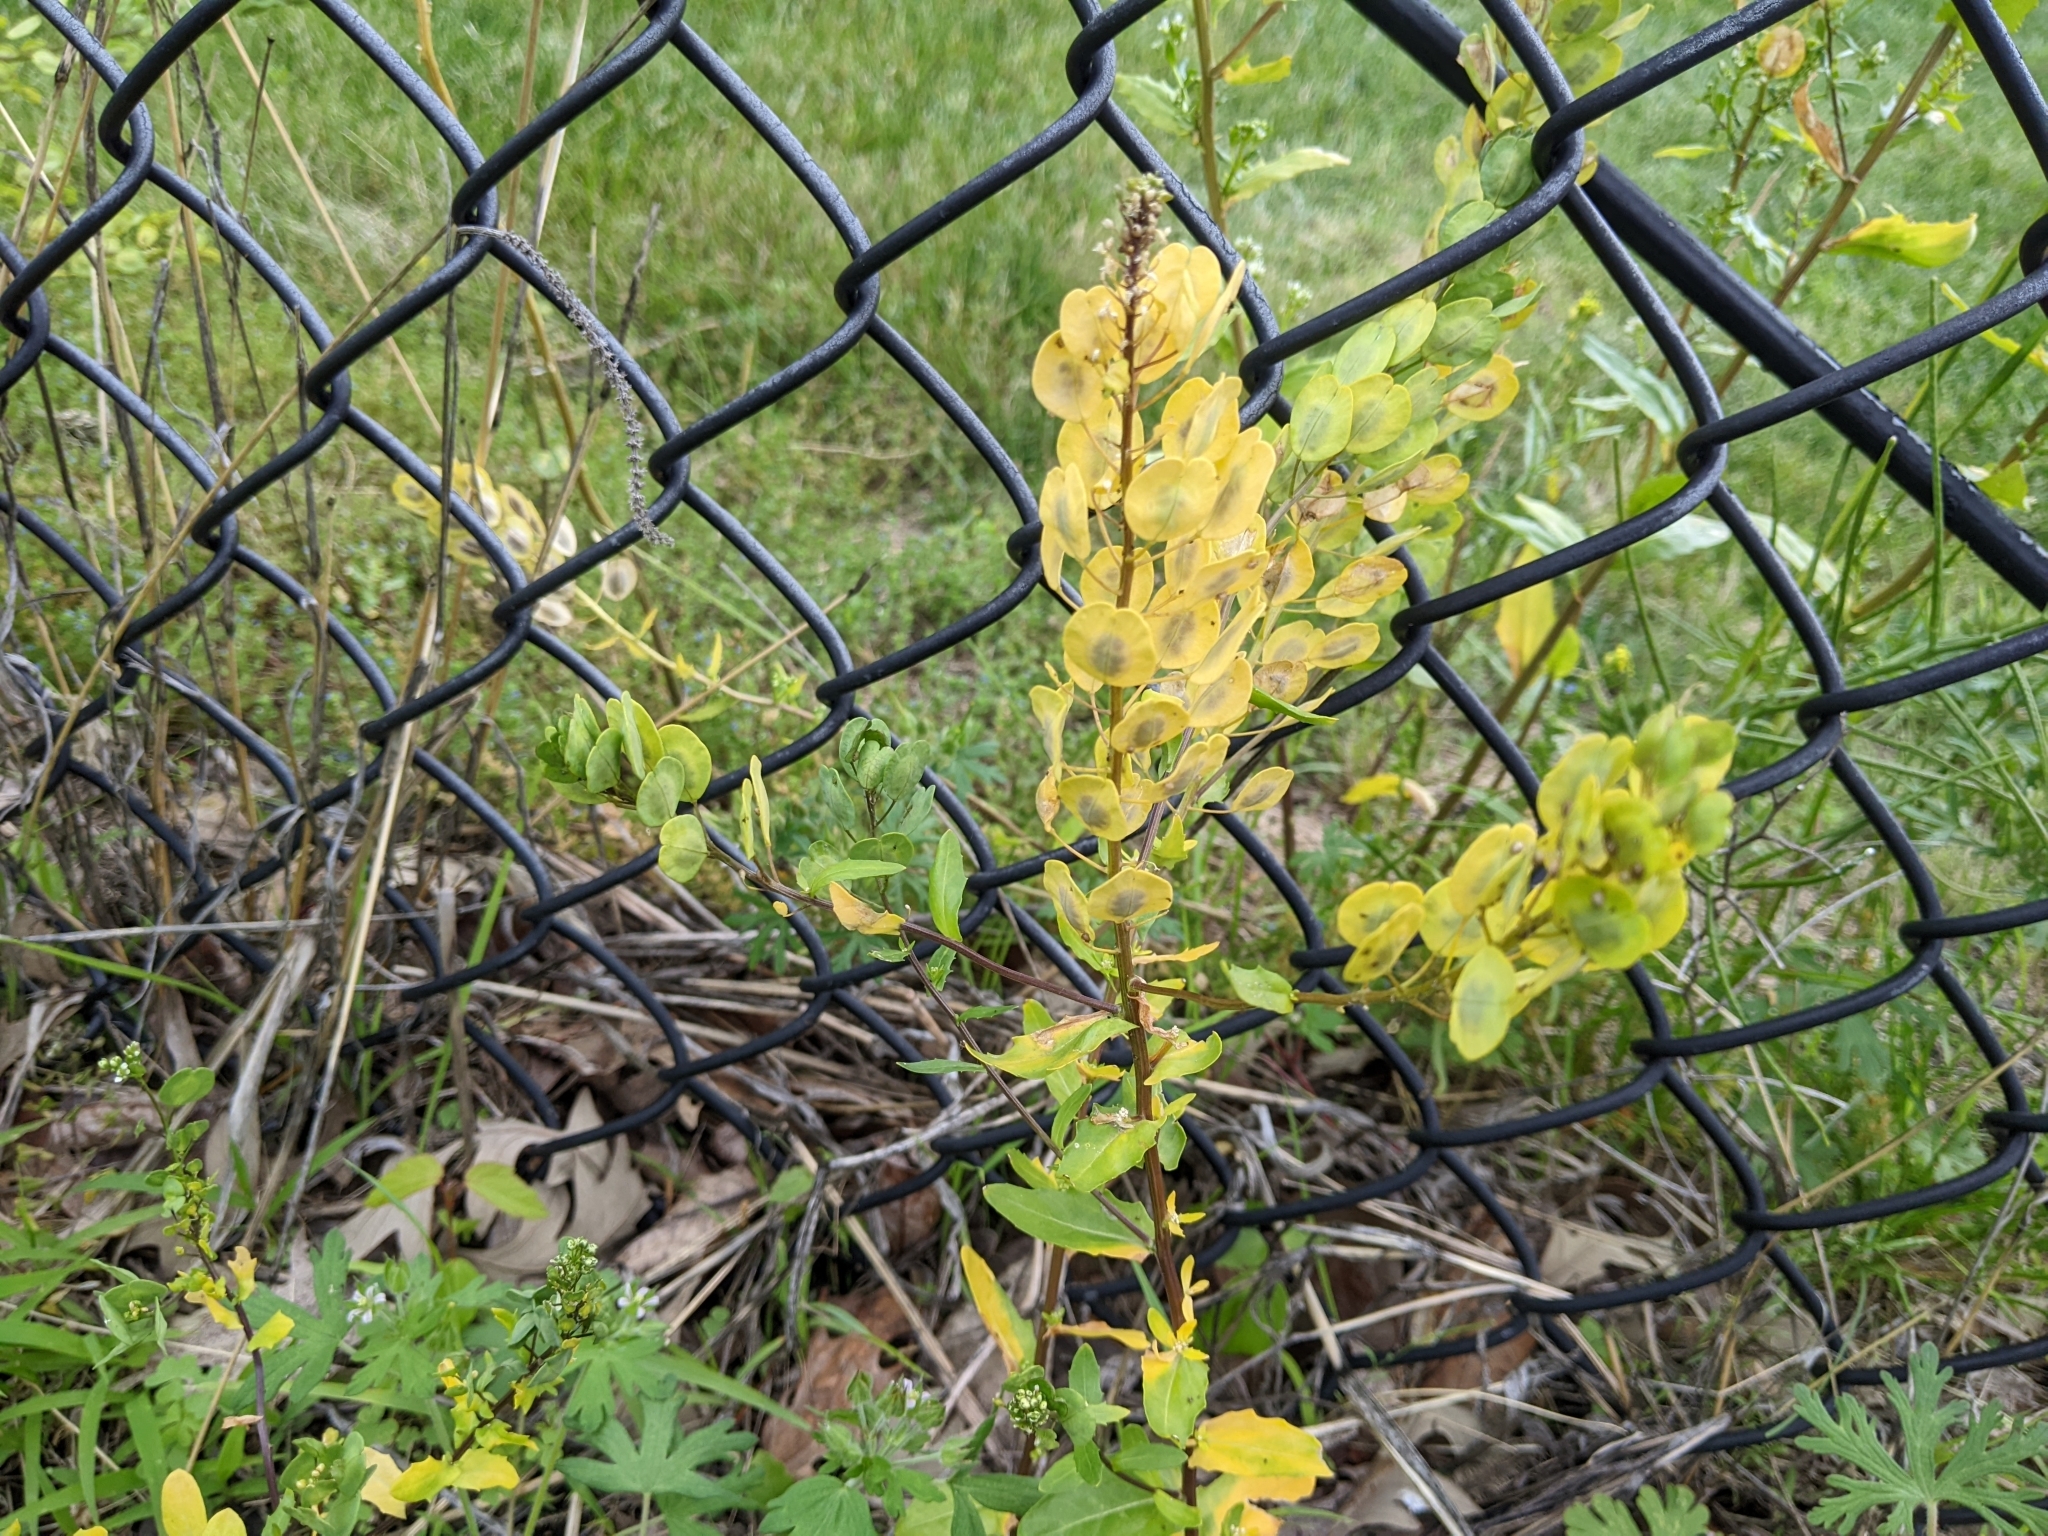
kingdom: Plantae
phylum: Tracheophyta
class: Magnoliopsida
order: Brassicales
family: Brassicaceae
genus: Thlaspi
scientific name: Thlaspi arvense
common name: Field pennycress
